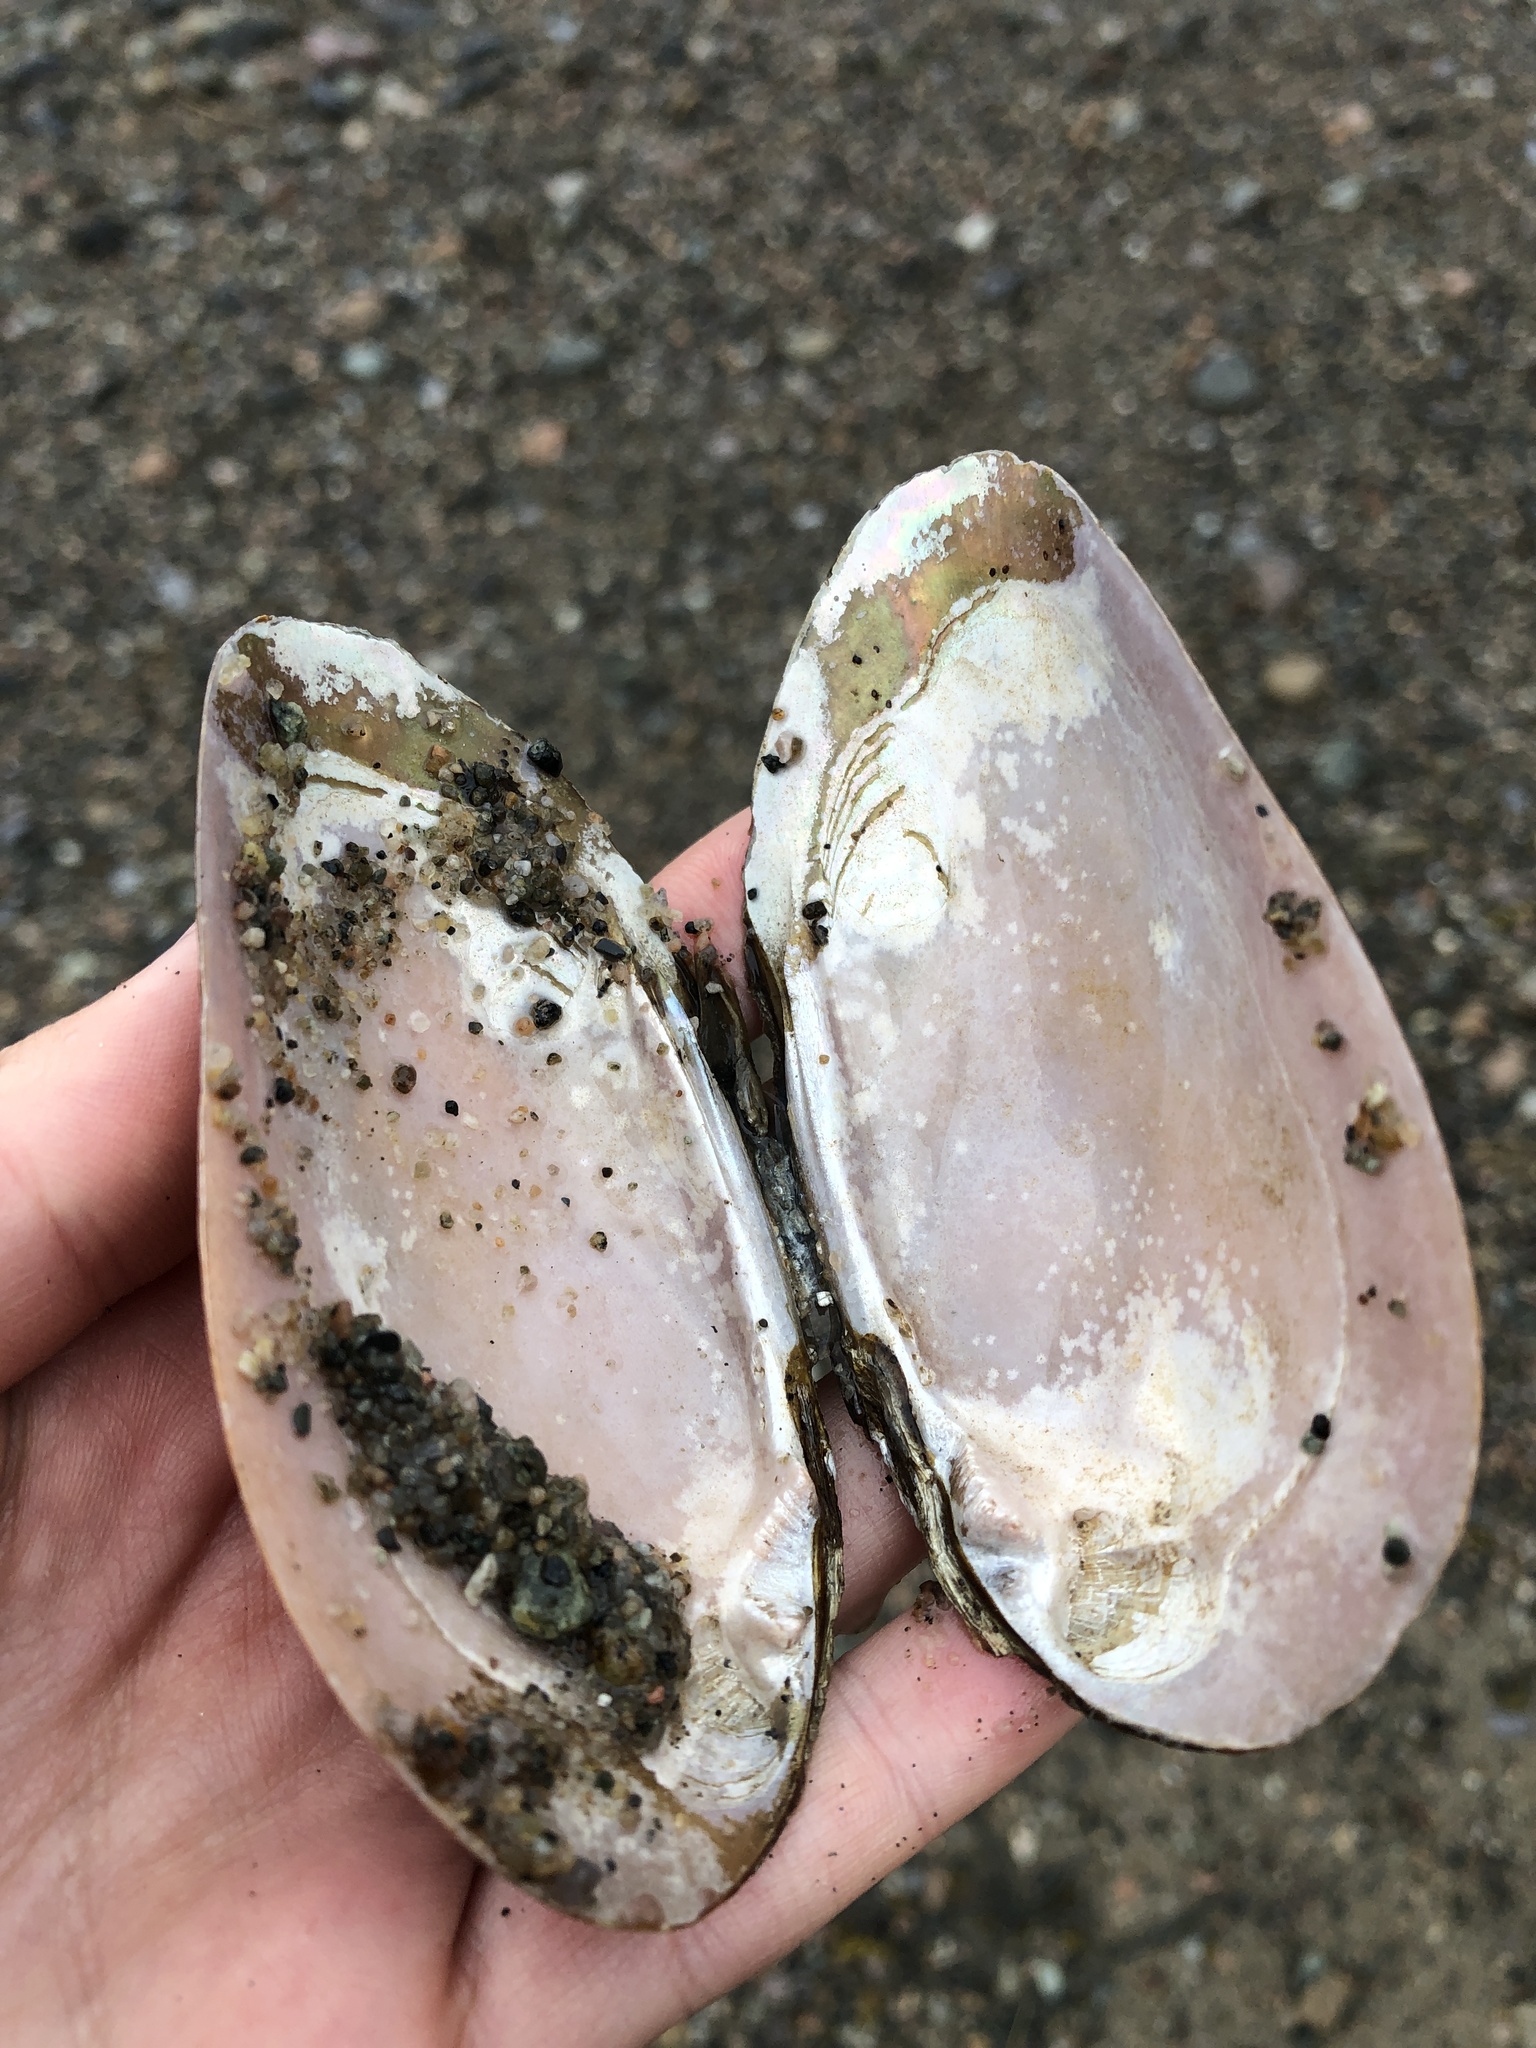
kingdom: Animalia
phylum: Mollusca
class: Bivalvia
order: Unionida
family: Unionidae
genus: Elliptio
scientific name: Elliptio complanata
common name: Eastern elliptio
